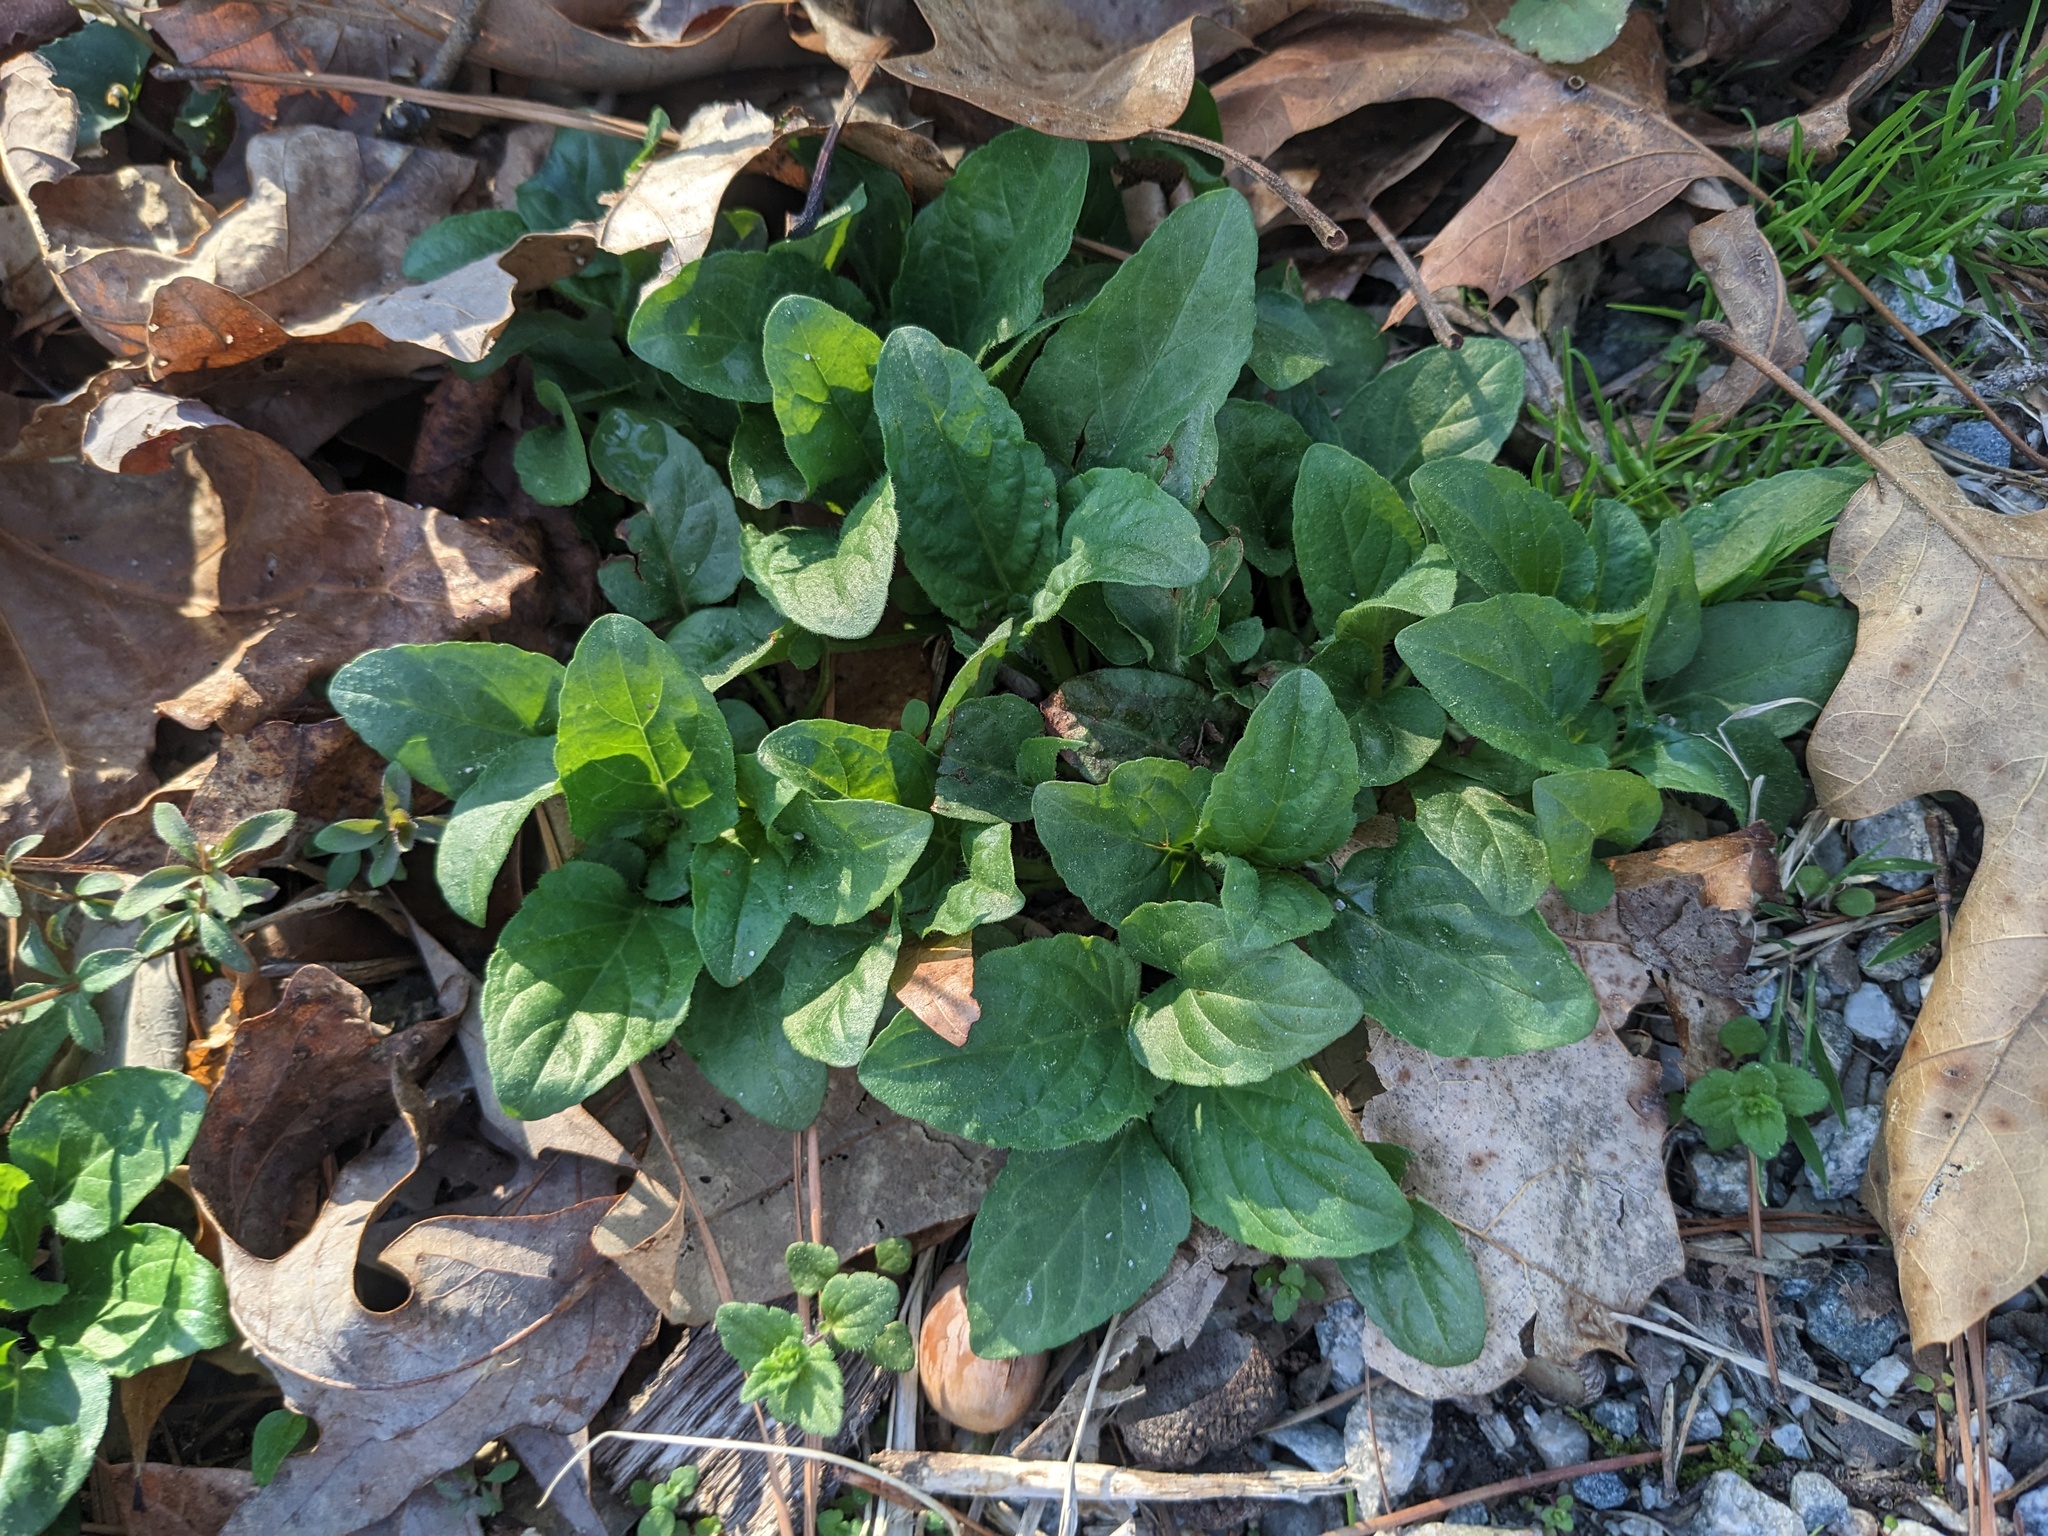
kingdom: Plantae
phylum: Tracheophyta
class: Magnoliopsida
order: Lamiales
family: Lamiaceae
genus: Prunella
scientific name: Prunella vulgaris
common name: Heal-all
